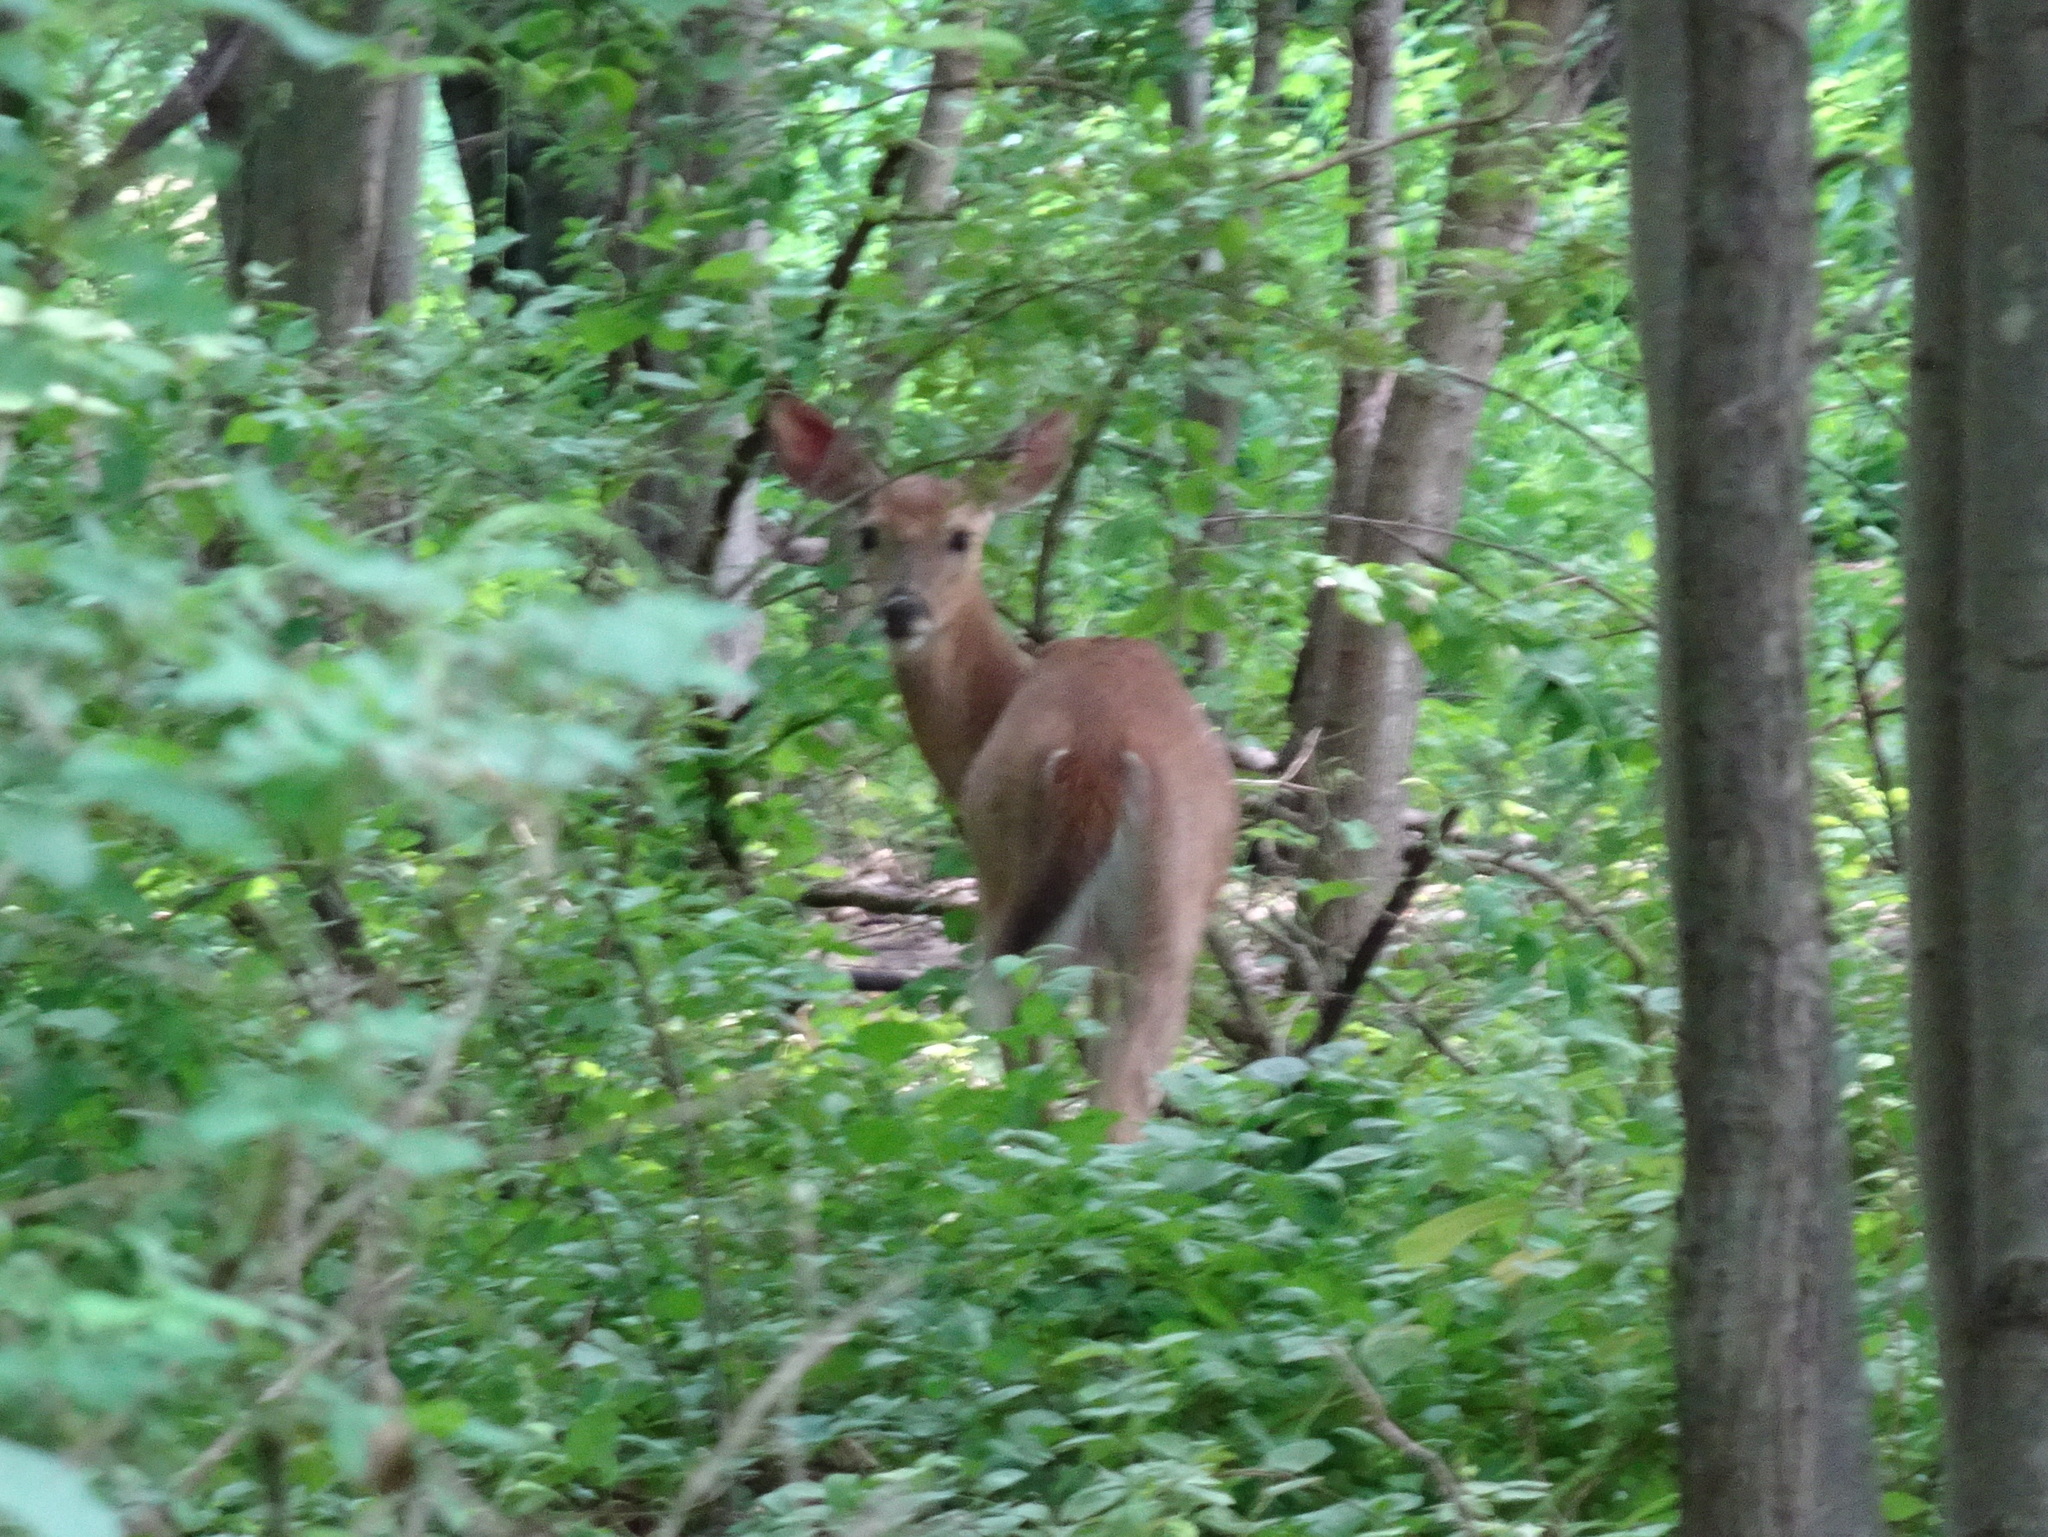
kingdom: Animalia
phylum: Chordata
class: Mammalia
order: Artiodactyla
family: Cervidae
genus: Odocoileus
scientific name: Odocoileus virginianus
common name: White-tailed deer
